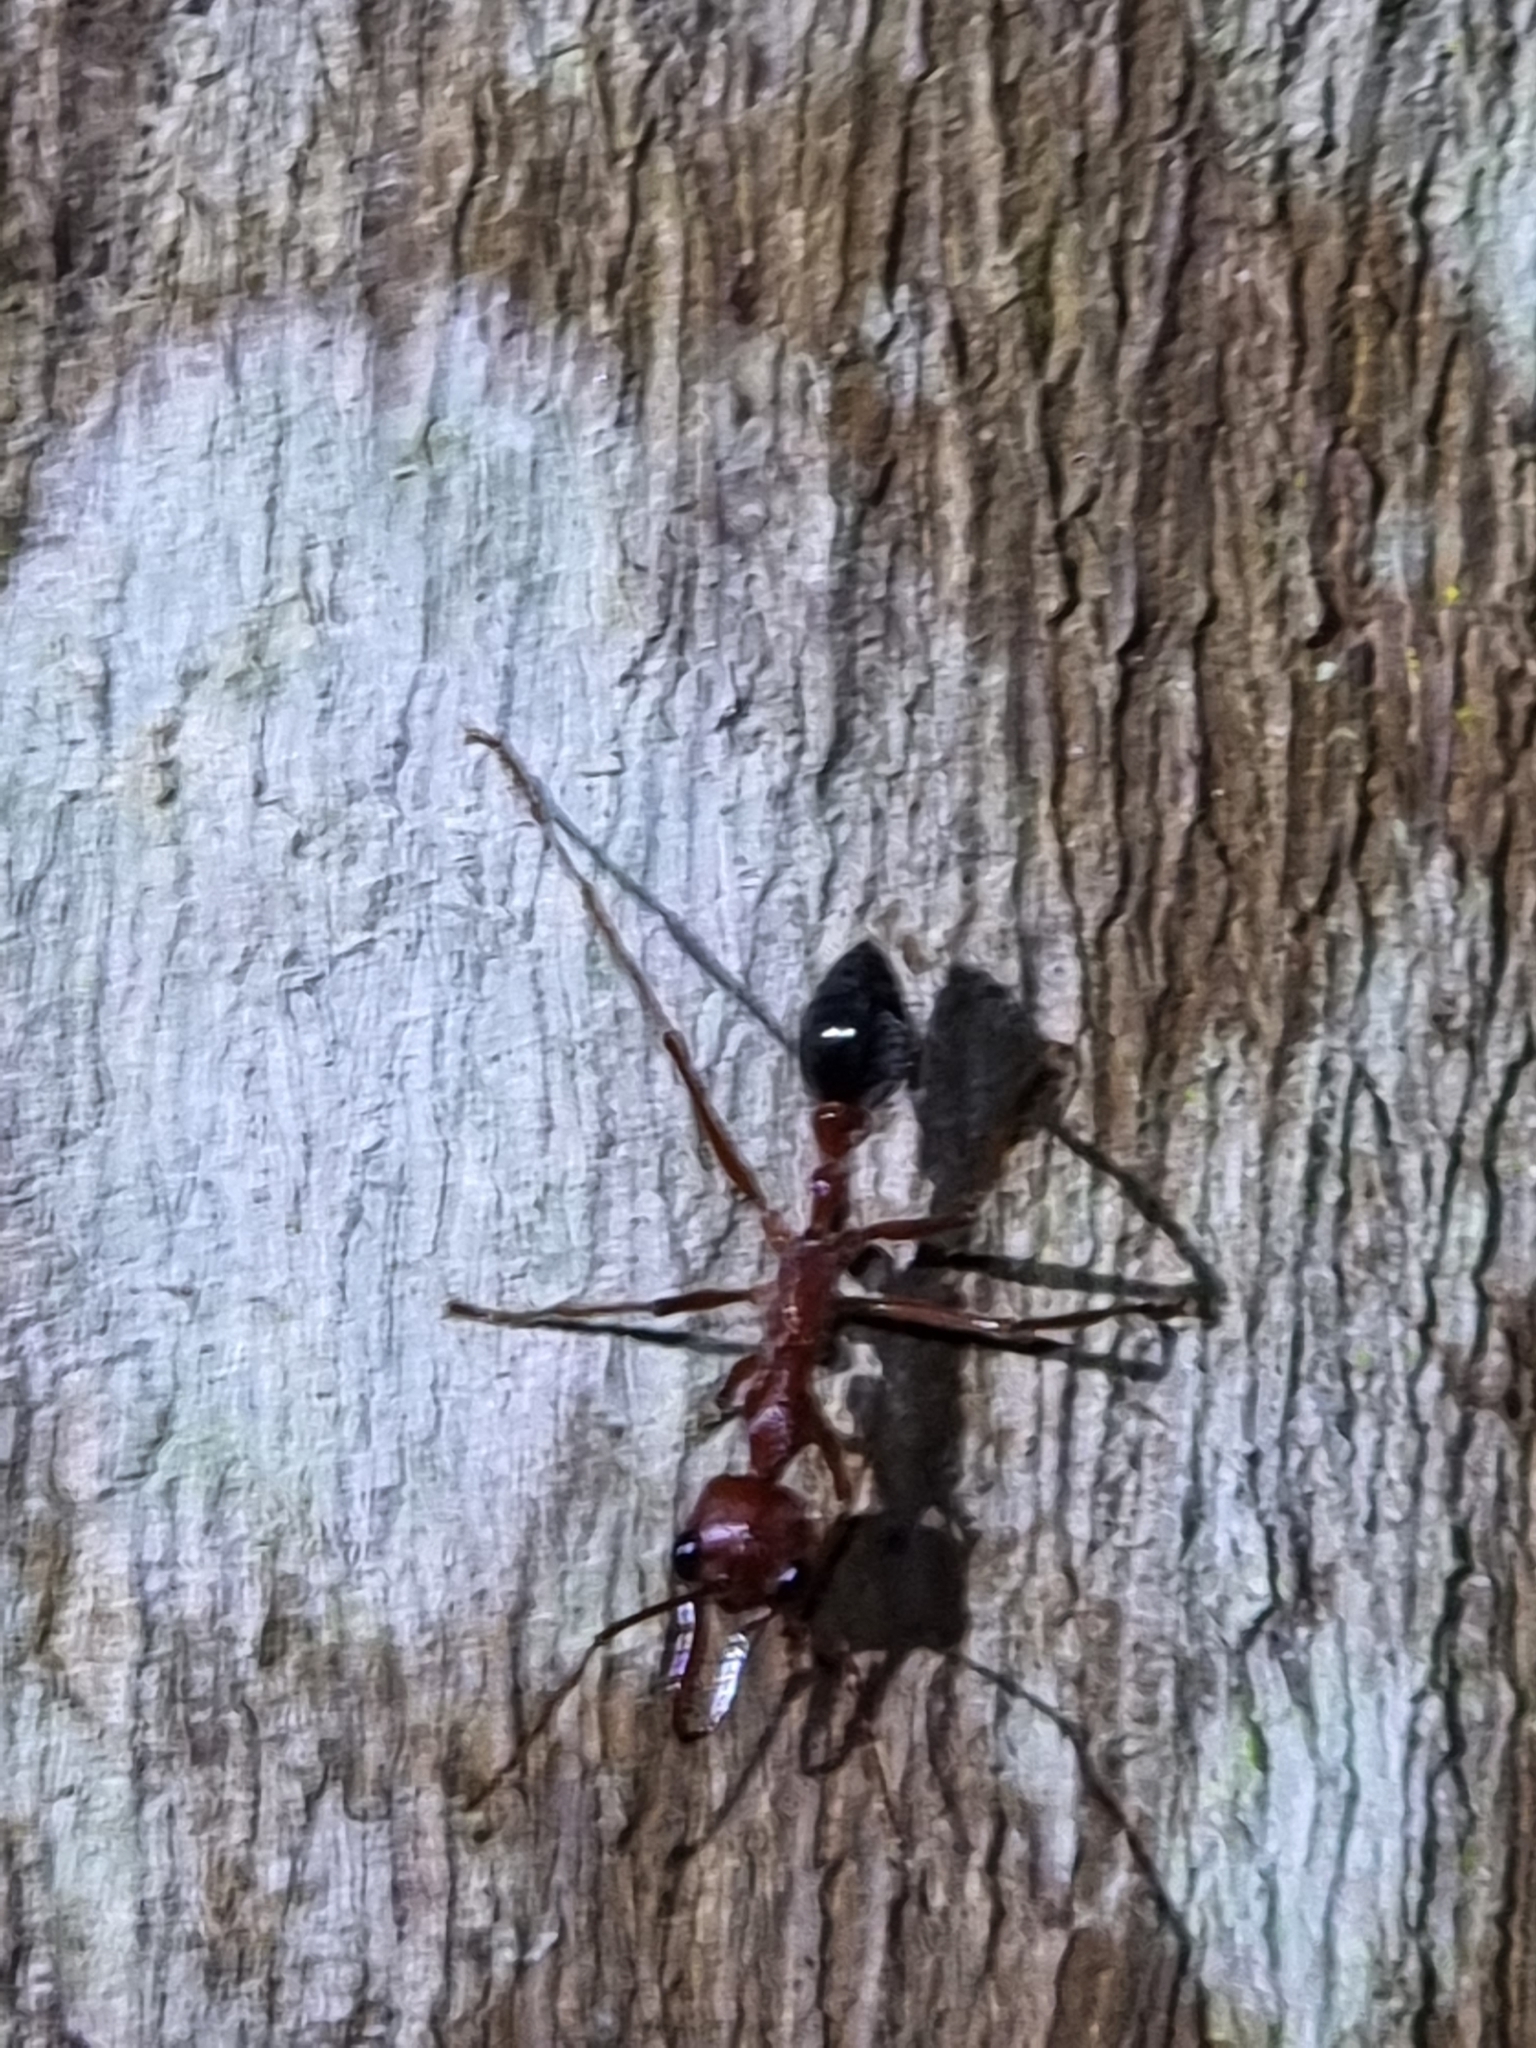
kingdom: Animalia
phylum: Arthropoda
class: Insecta
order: Hymenoptera
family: Formicidae
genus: Myrmecia
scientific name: Myrmecia brevinoda
